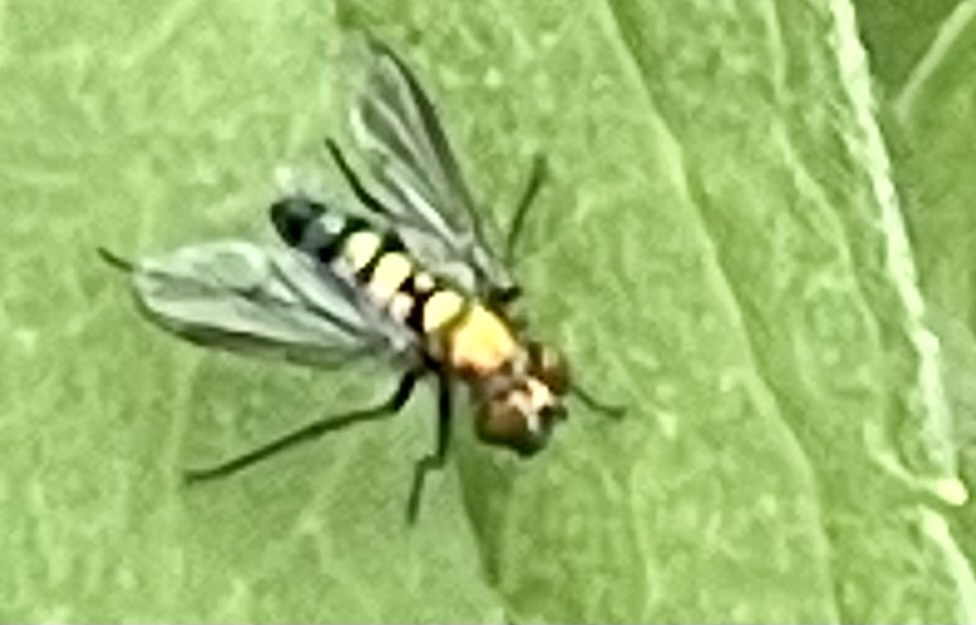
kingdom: Animalia
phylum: Arthropoda
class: Insecta
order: Diptera
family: Dolichopodidae
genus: Condylostylus
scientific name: Condylostylus longicornis
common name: Long-legged fly
